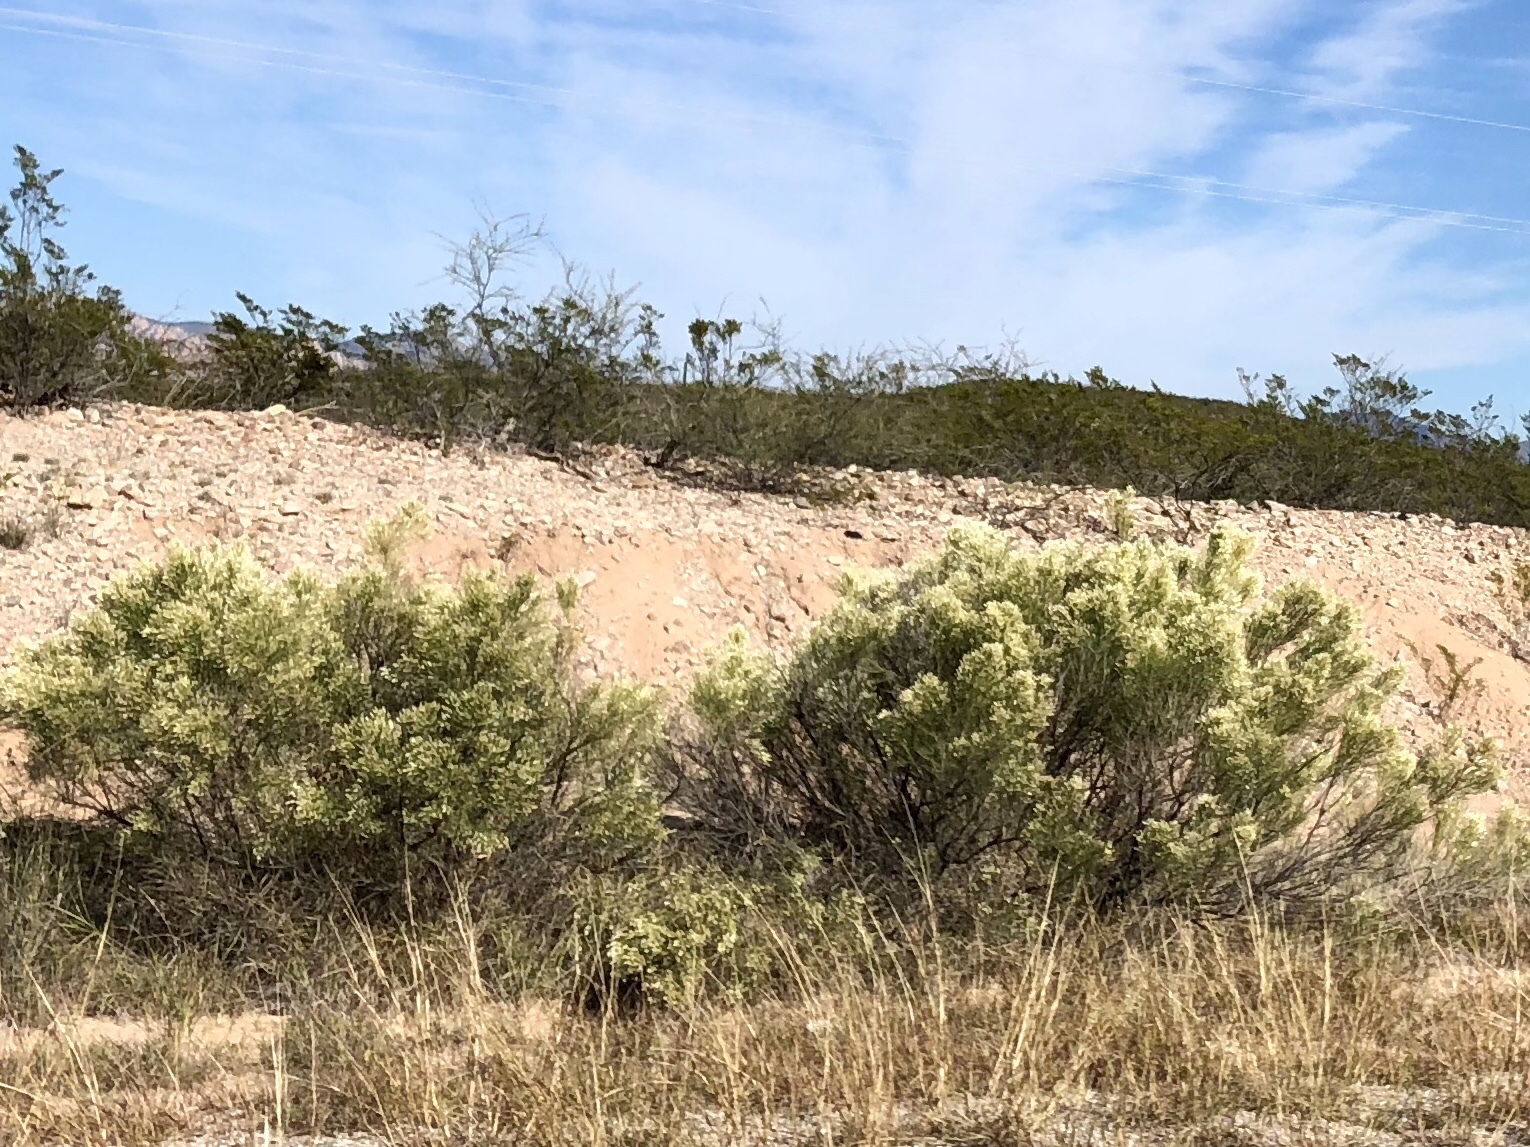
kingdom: Plantae
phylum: Tracheophyta
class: Magnoliopsida
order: Asterales
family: Asteraceae
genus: Baccharis
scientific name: Baccharis sarothroides
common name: Desert-broom
